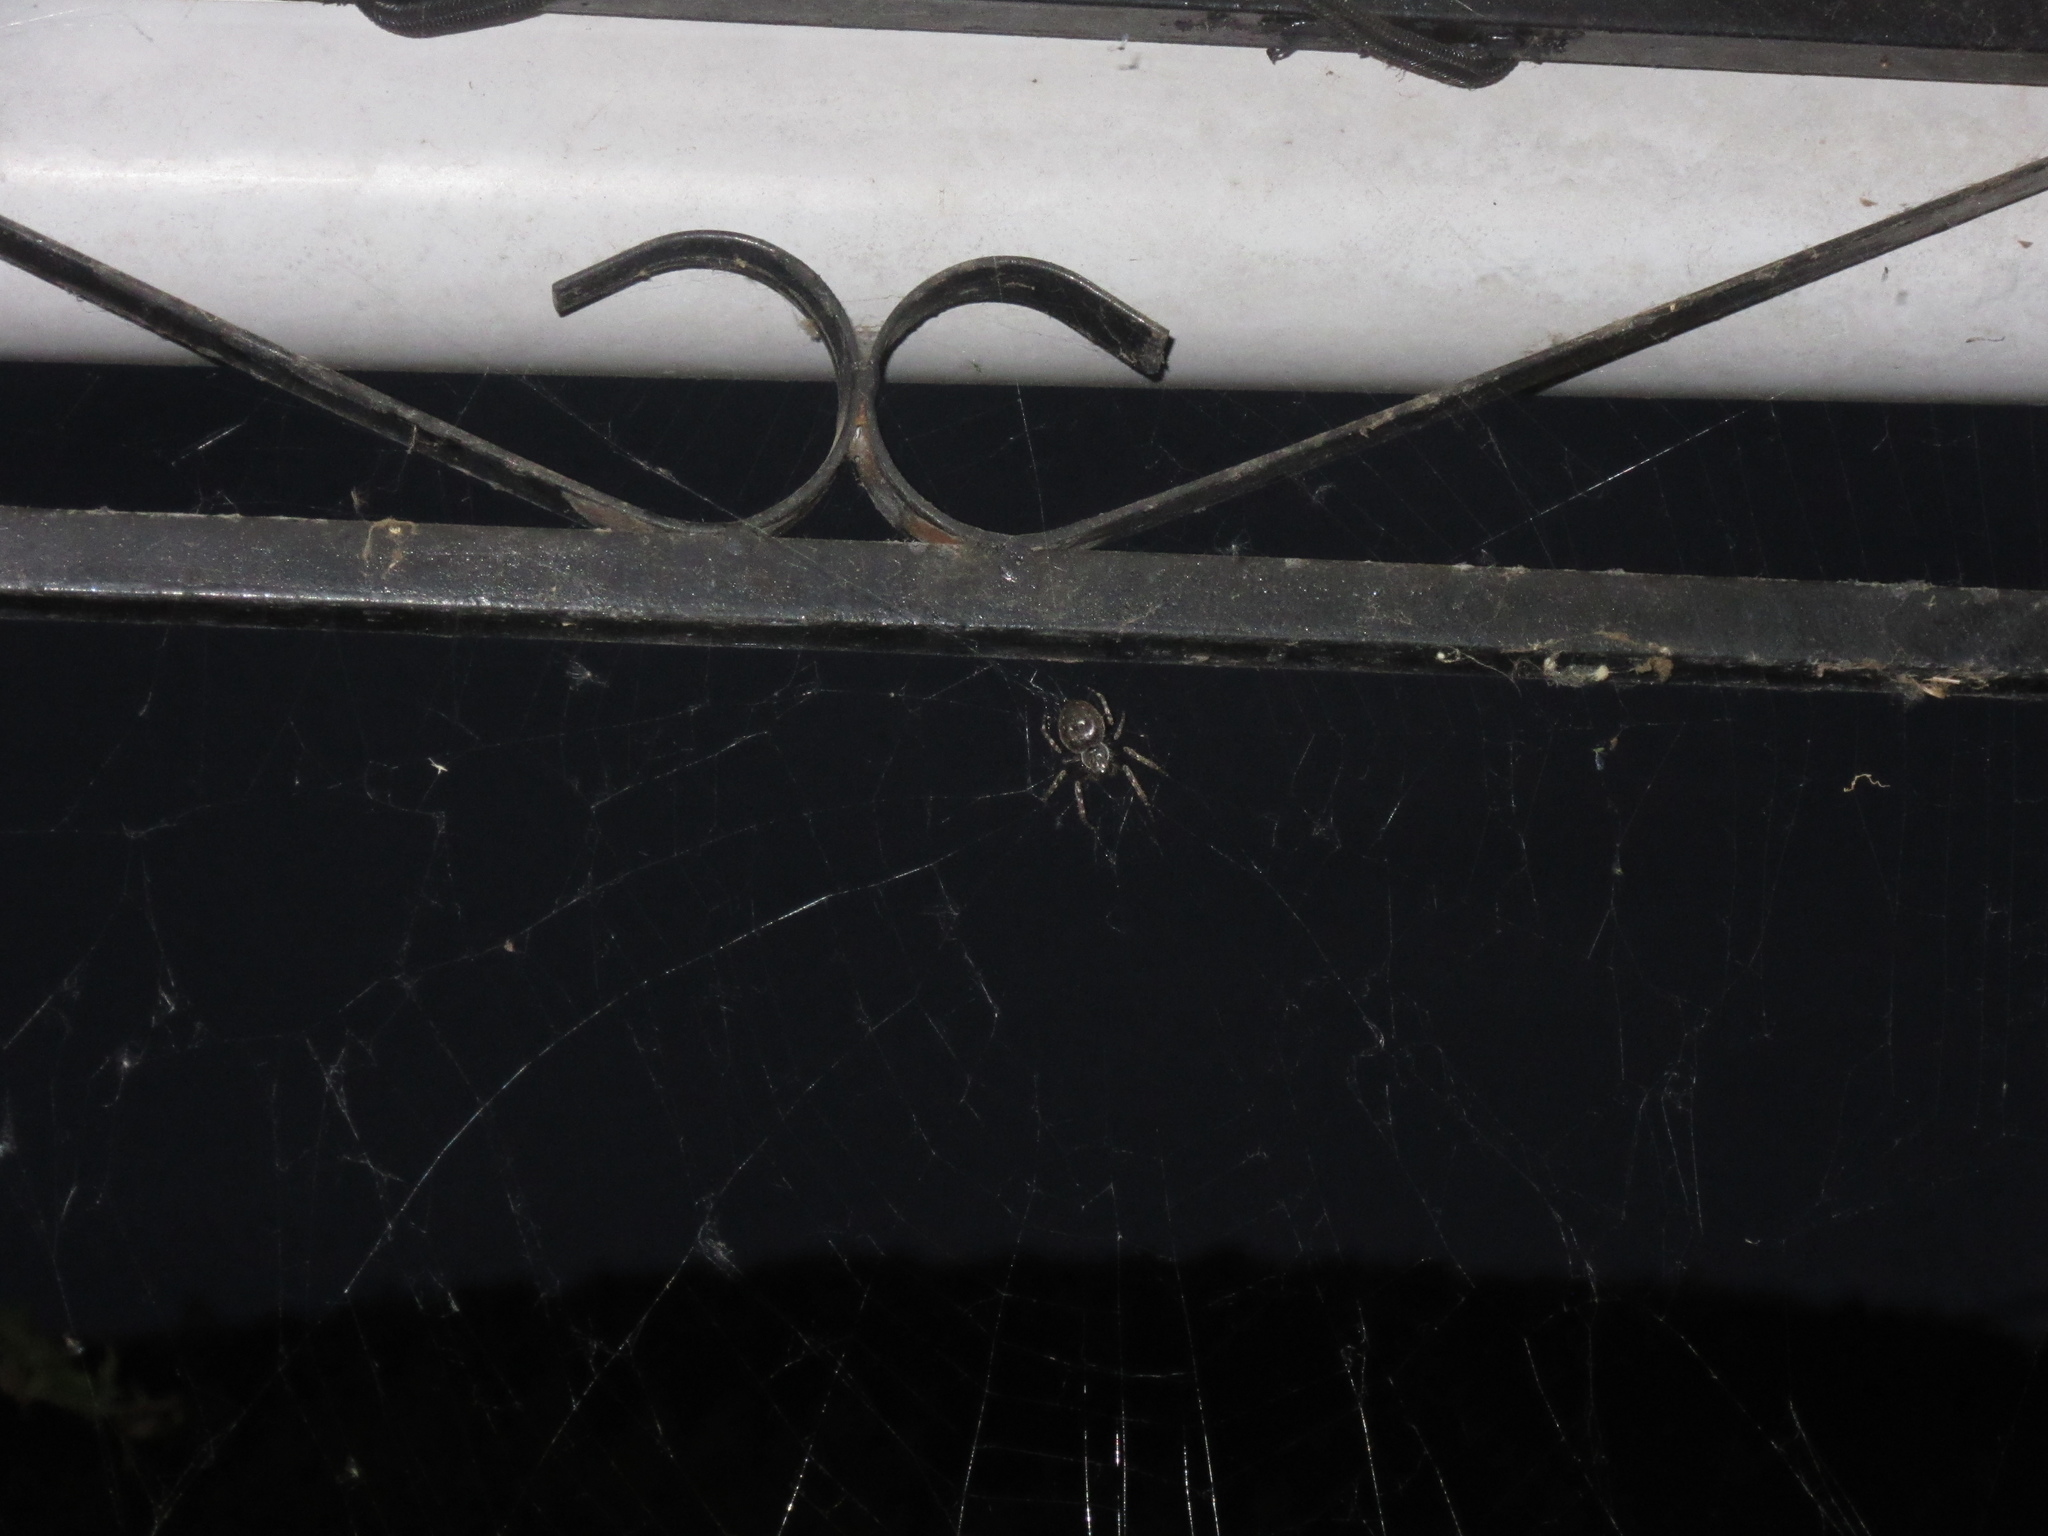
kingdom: Animalia
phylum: Arthropoda
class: Arachnida
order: Araneae
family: Araneidae
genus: Nuctenea
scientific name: Nuctenea umbratica
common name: Toad spider
